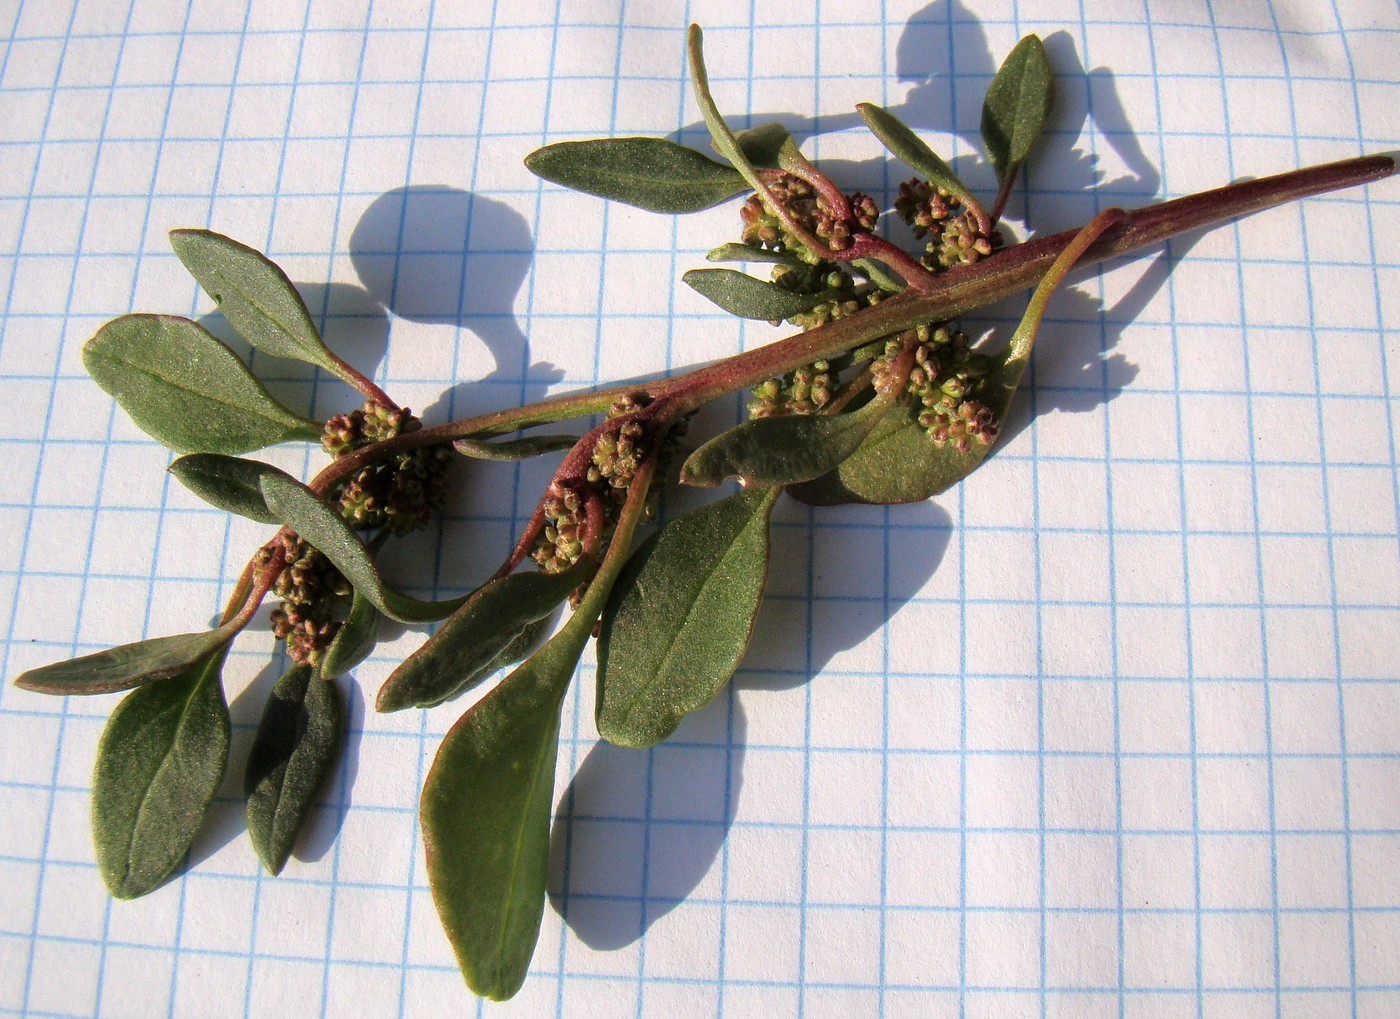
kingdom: Plantae
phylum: Tracheophyta
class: Magnoliopsida
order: Caryophyllales
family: Amaranthaceae
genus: Oxybasis
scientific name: Oxybasis rubra
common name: Red goosefoot
